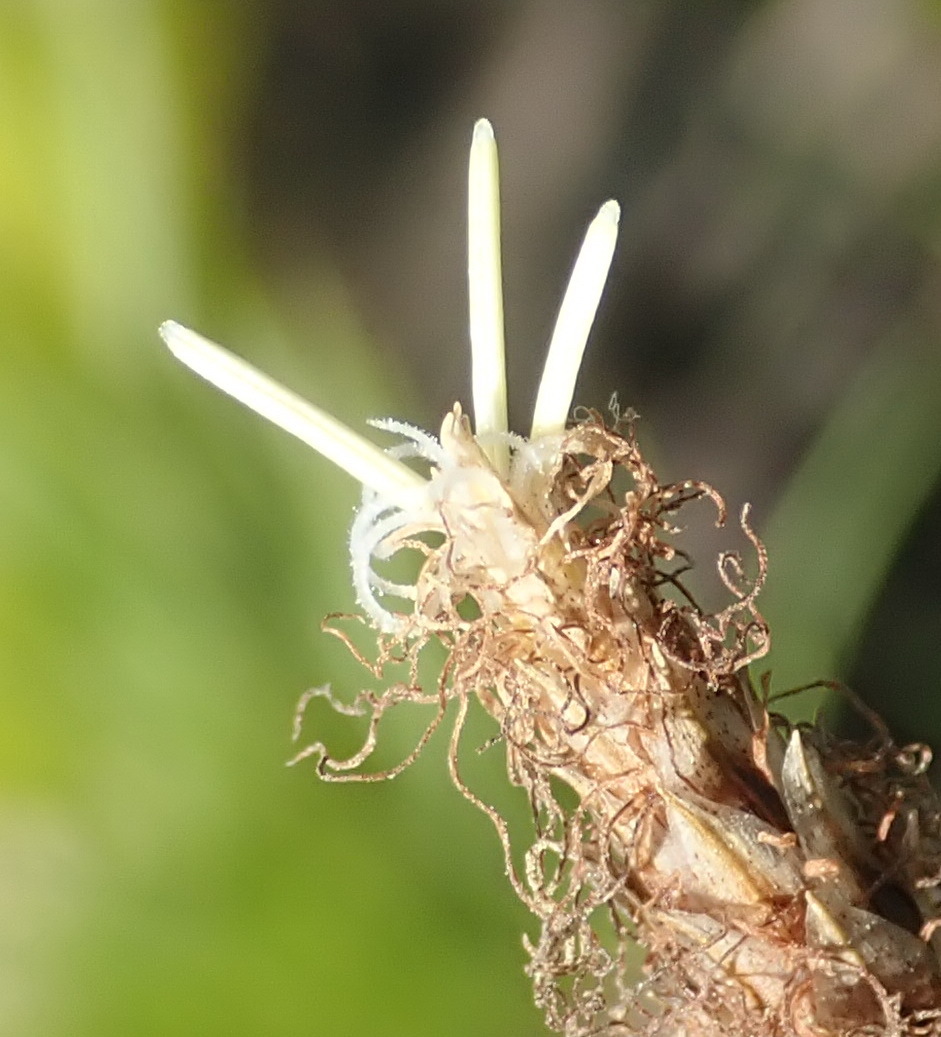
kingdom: Plantae
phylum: Tracheophyta
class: Liliopsida
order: Poales
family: Cyperaceae
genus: Ficinia
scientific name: Ficinia deusta
